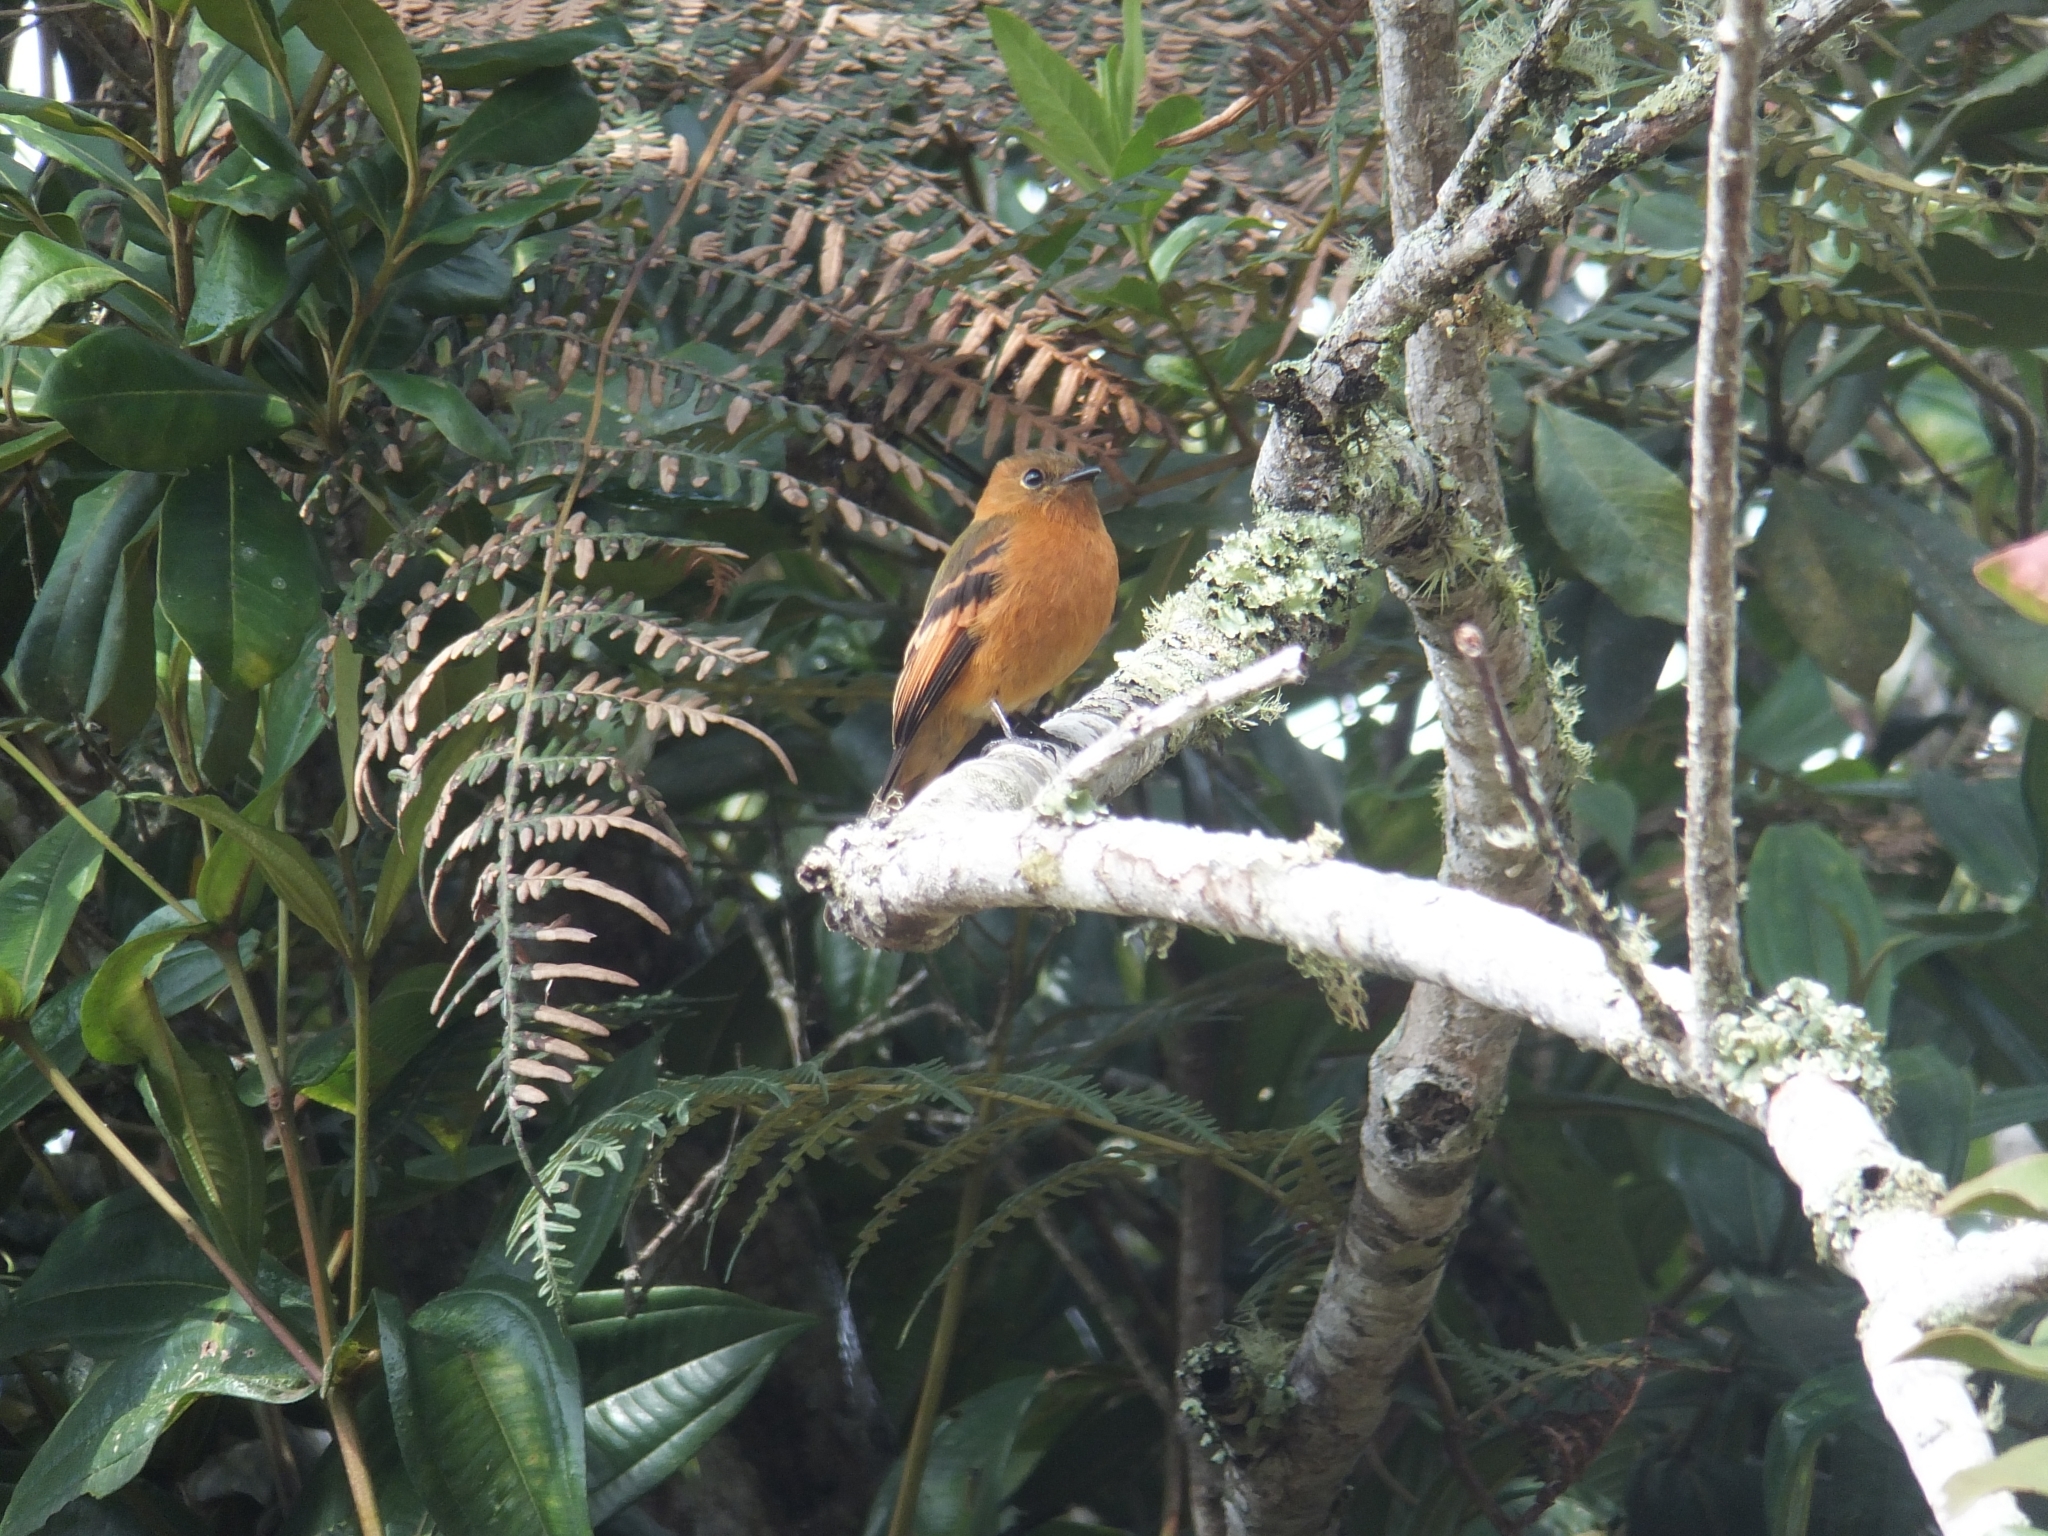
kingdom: Animalia
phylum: Chordata
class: Aves
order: Passeriformes
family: Tyrannidae
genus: Pyrrhomyias
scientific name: Pyrrhomyias cinnamomeus
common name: Cinnamon flycatcher
